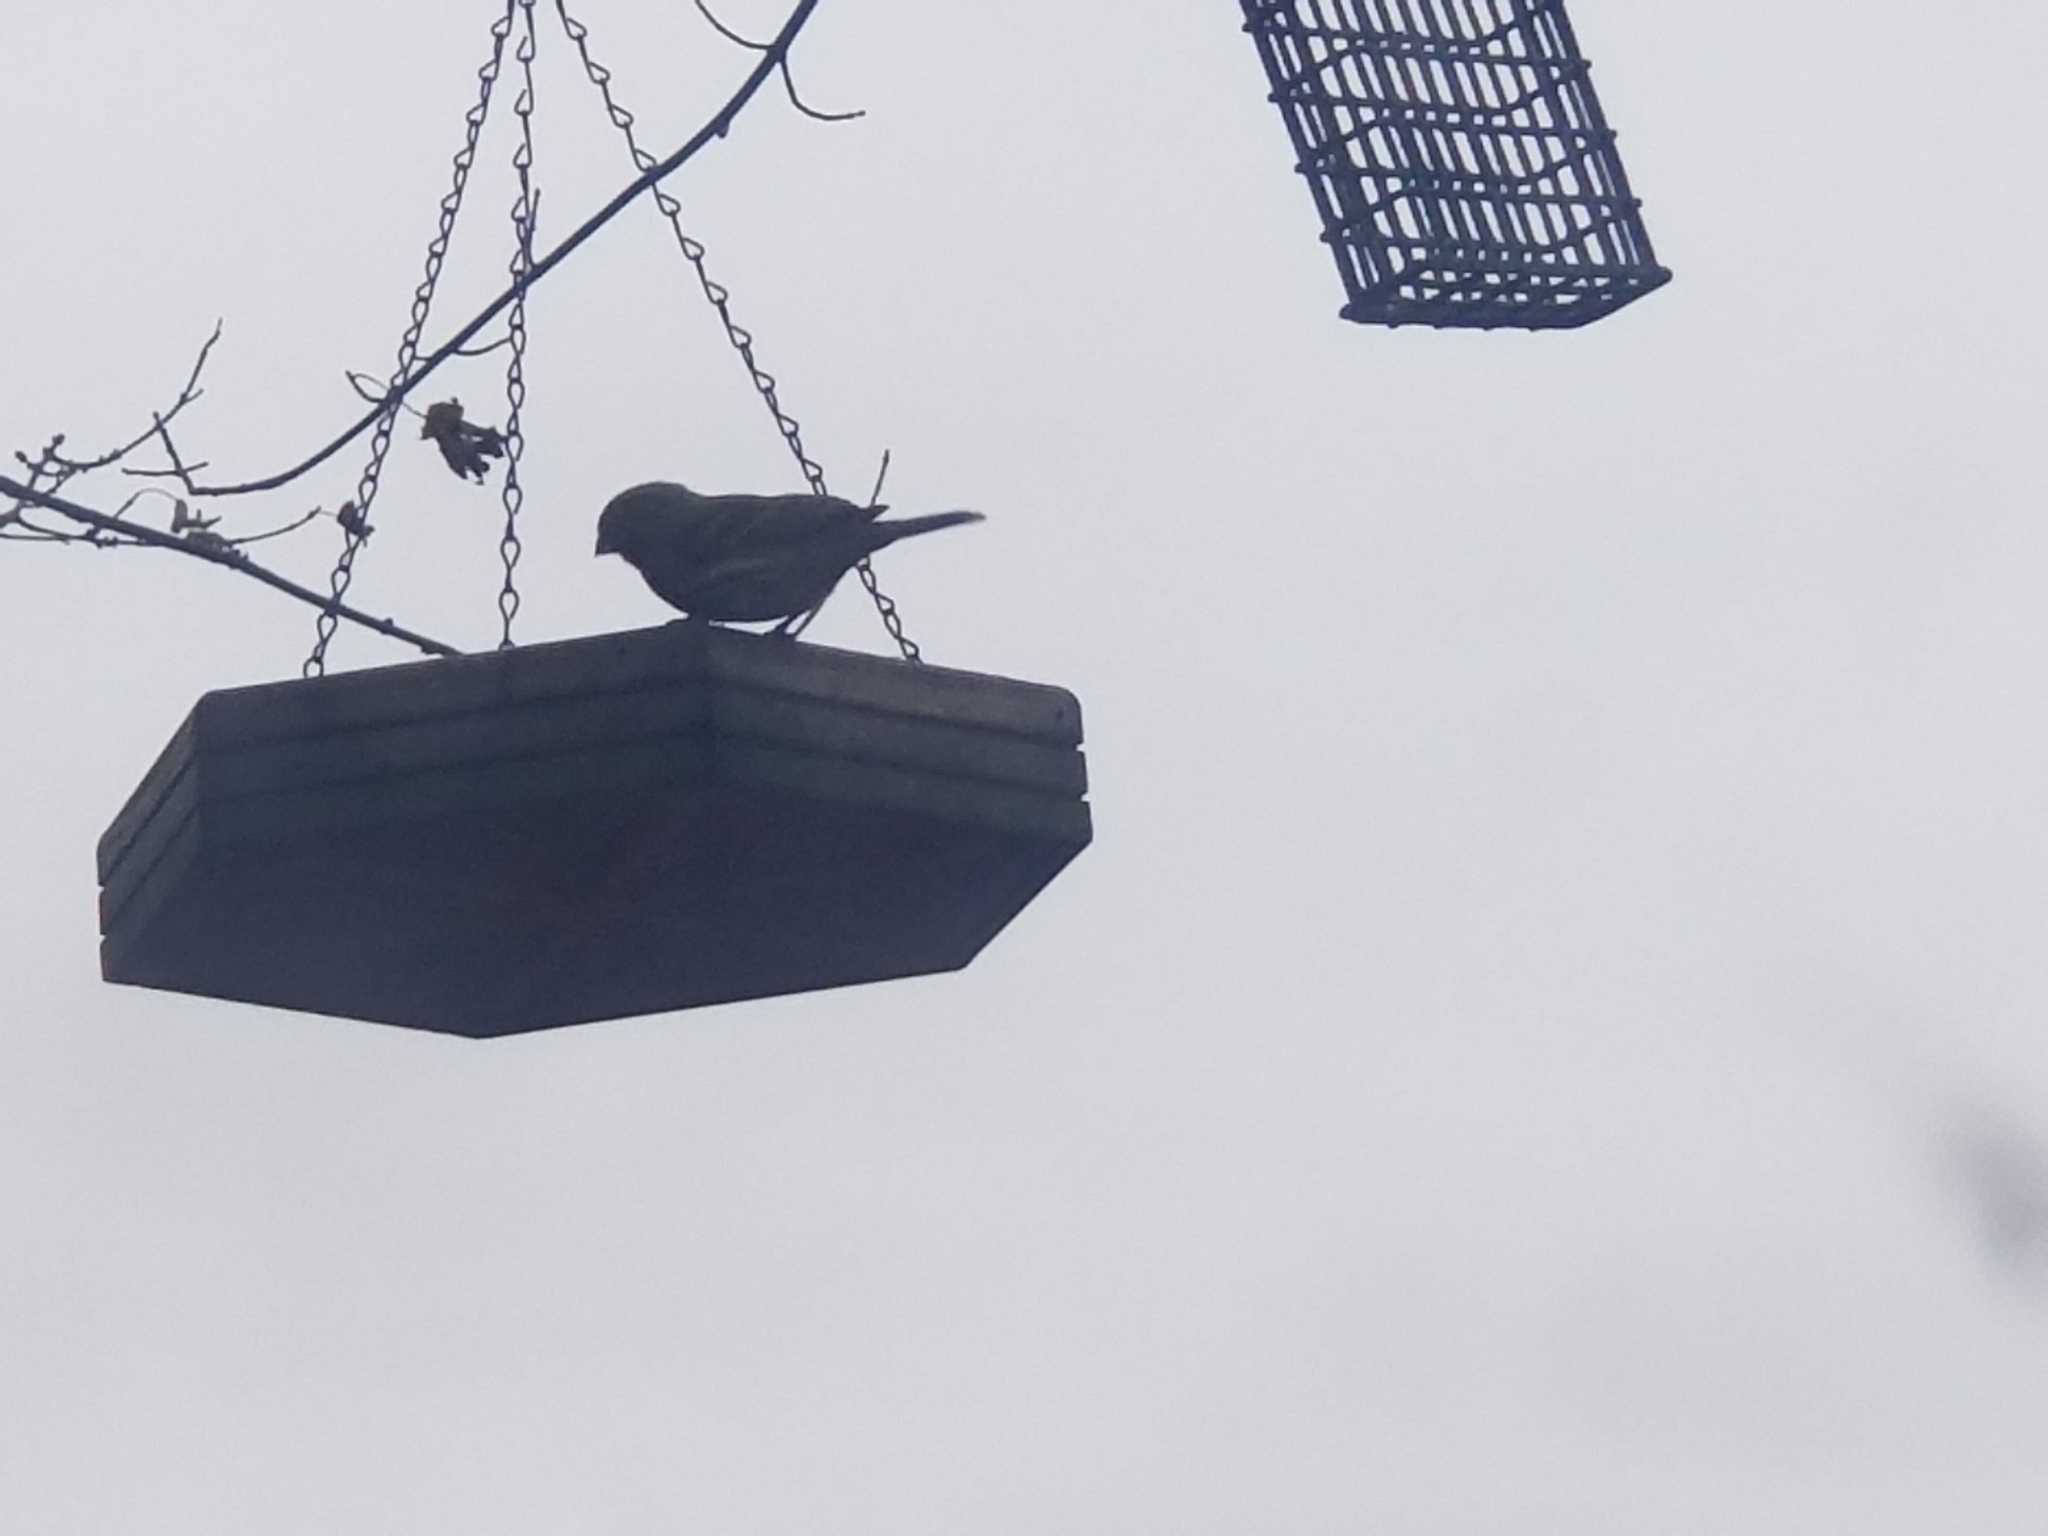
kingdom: Animalia
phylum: Chordata
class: Aves
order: Passeriformes
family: Fringillidae
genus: Spinus
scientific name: Spinus tristis
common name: American goldfinch
